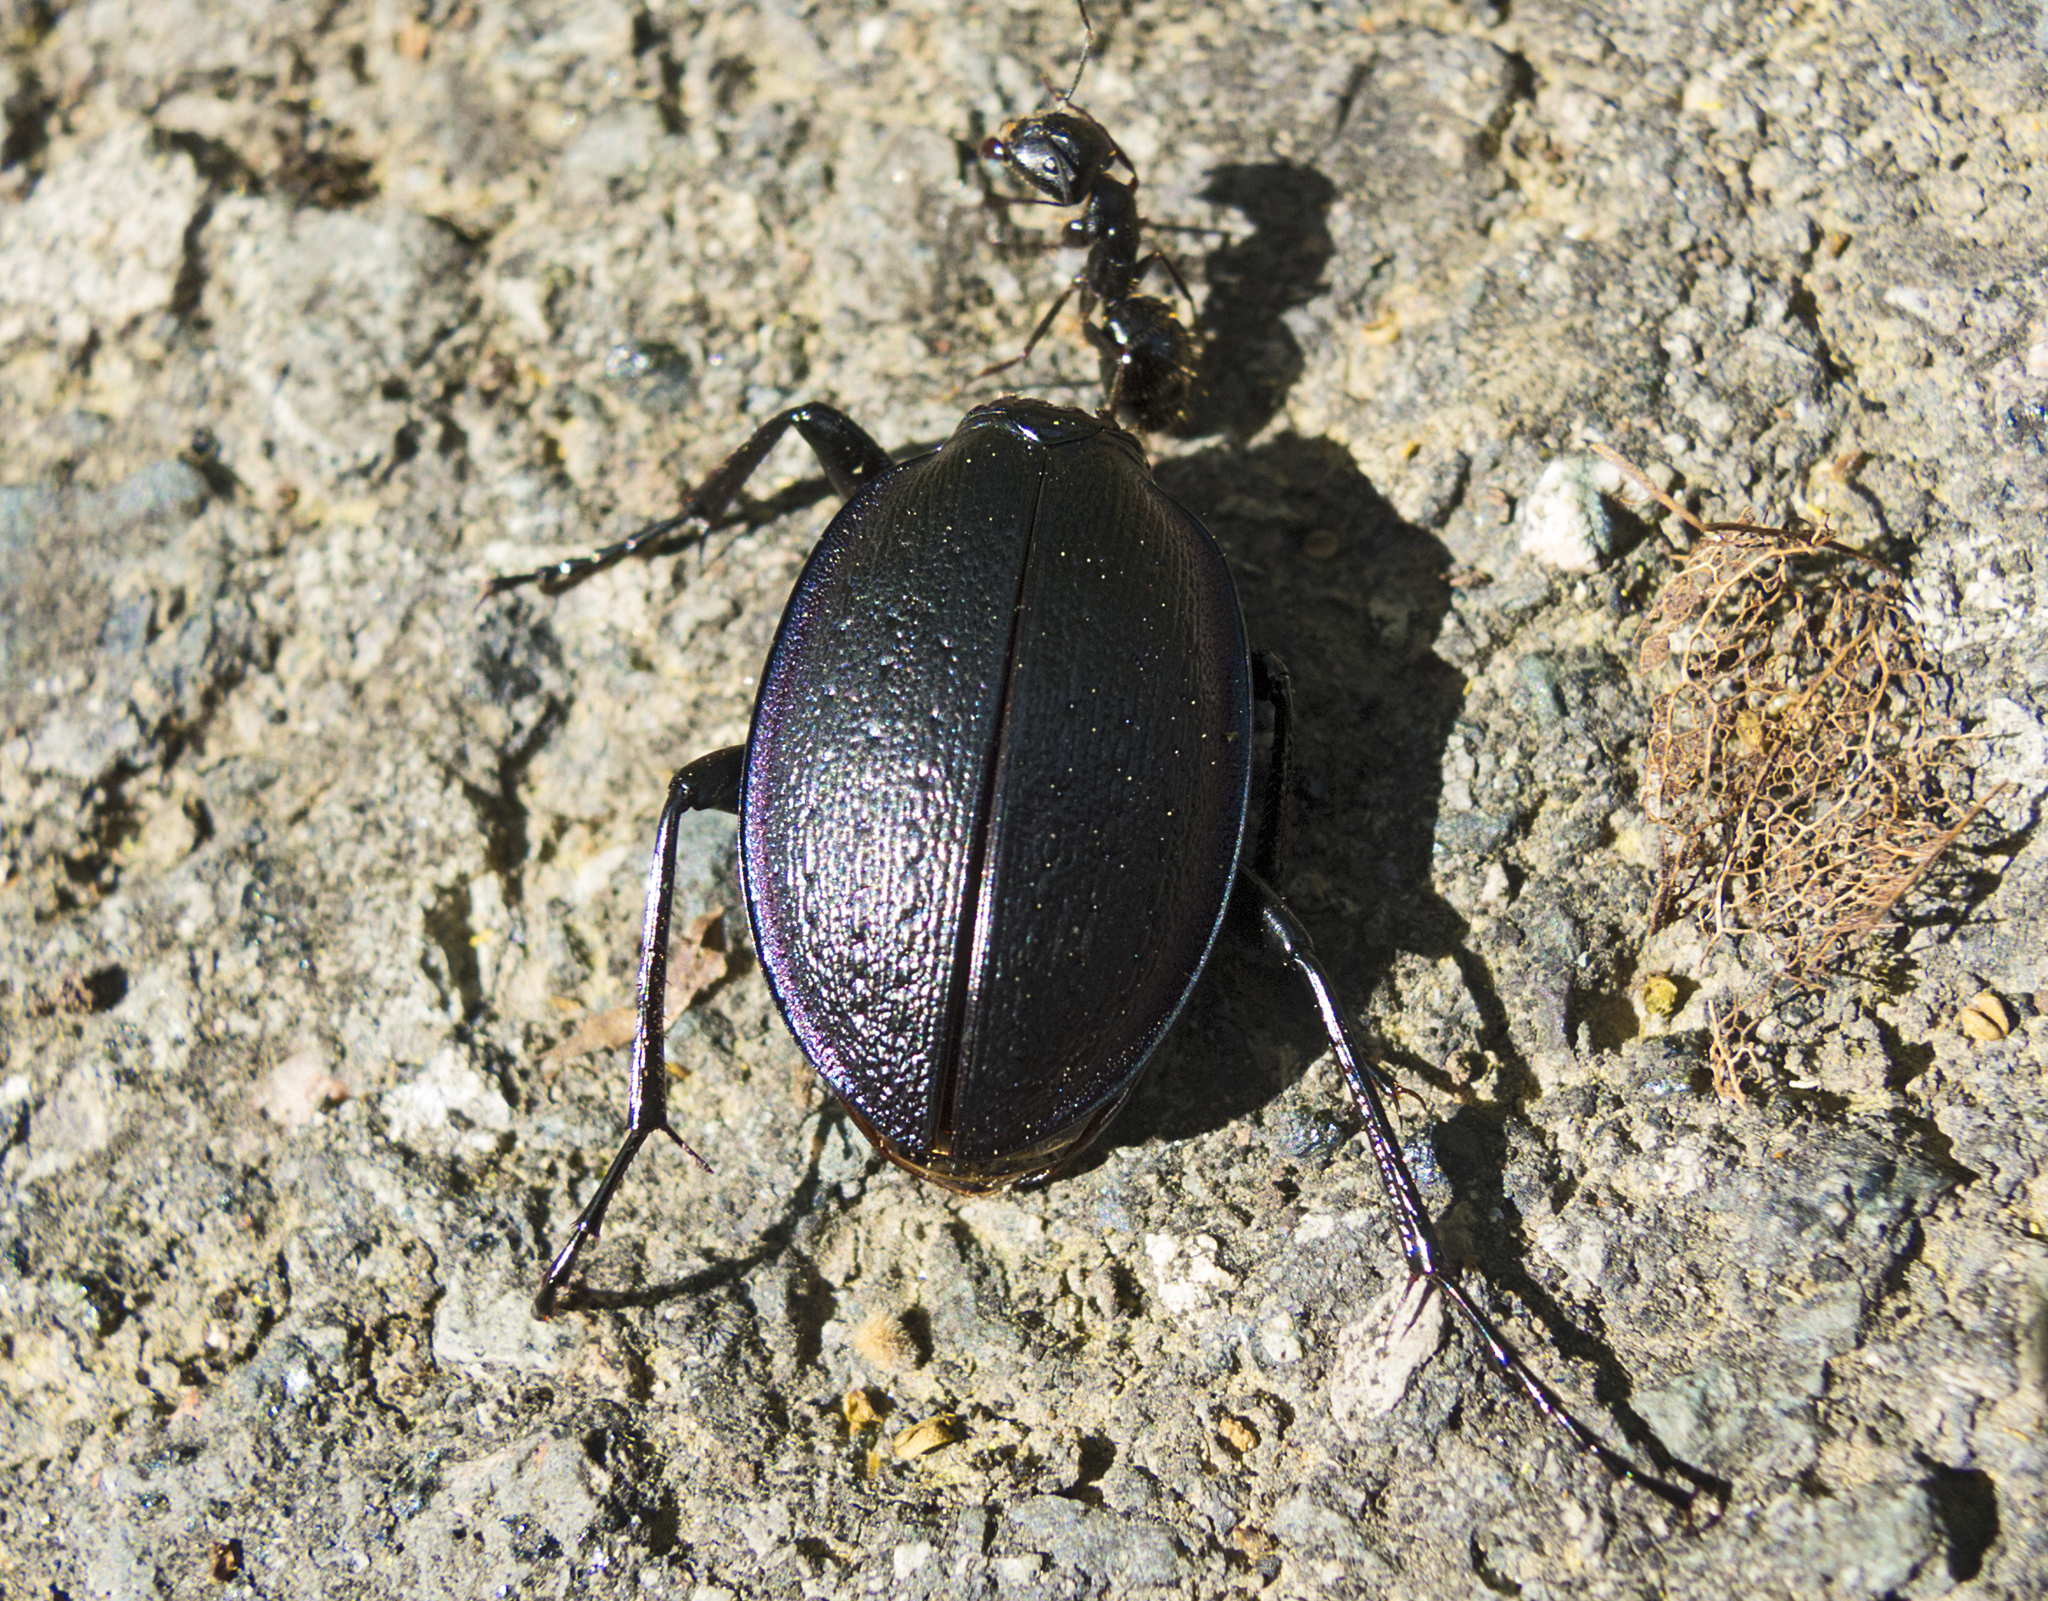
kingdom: Animalia
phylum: Arthropoda
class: Insecta
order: Coleoptera
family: Carabidae
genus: Carabus
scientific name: Carabus wiedemanni
